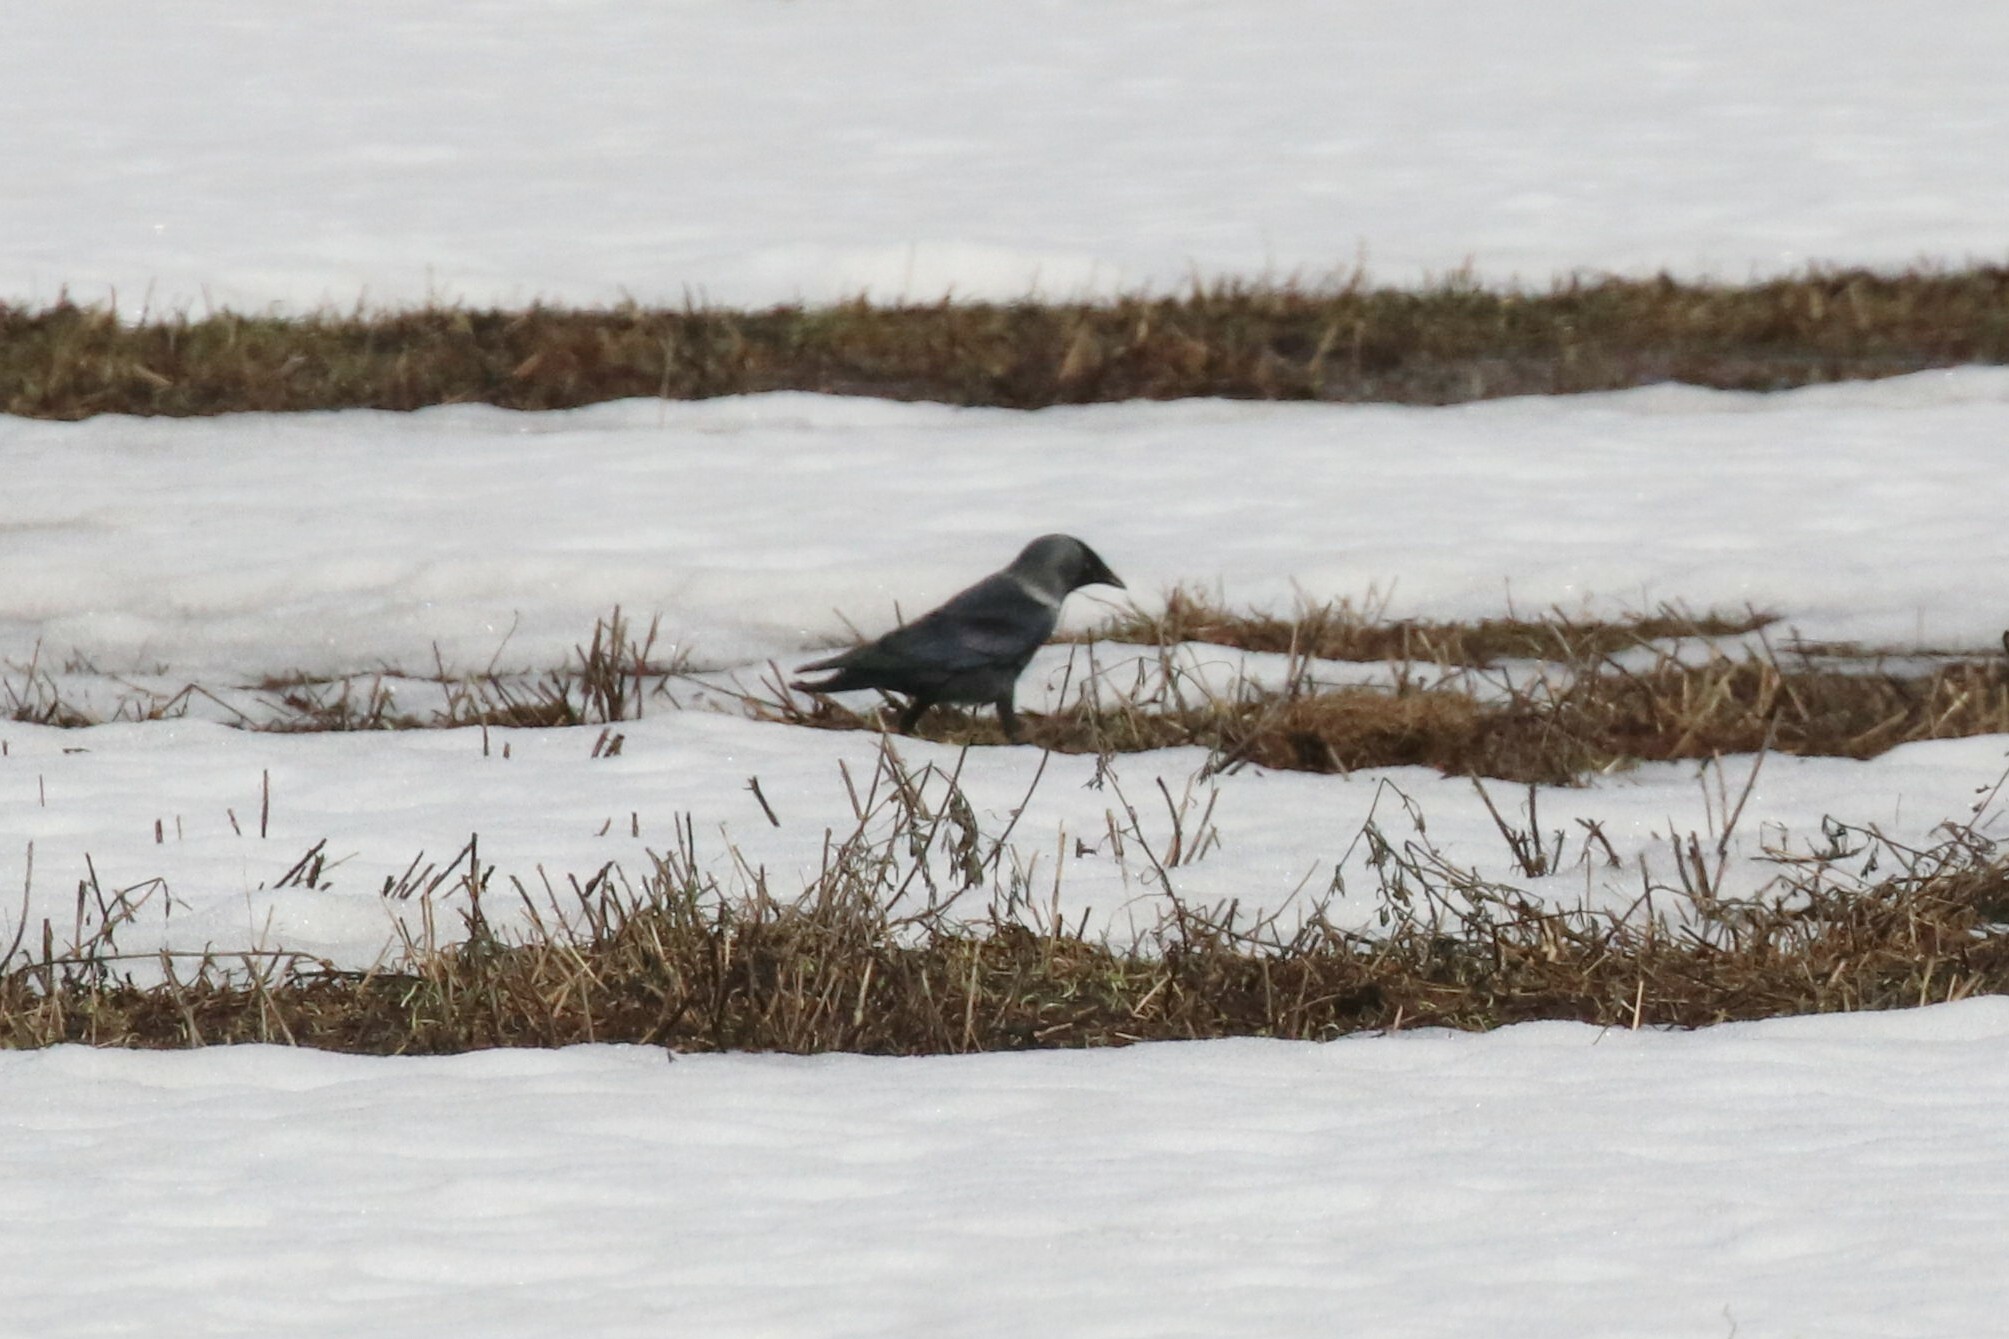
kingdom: Animalia
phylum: Chordata
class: Aves
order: Passeriformes
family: Corvidae
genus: Coloeus
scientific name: Coloeus monedula
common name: Western jackdaw
